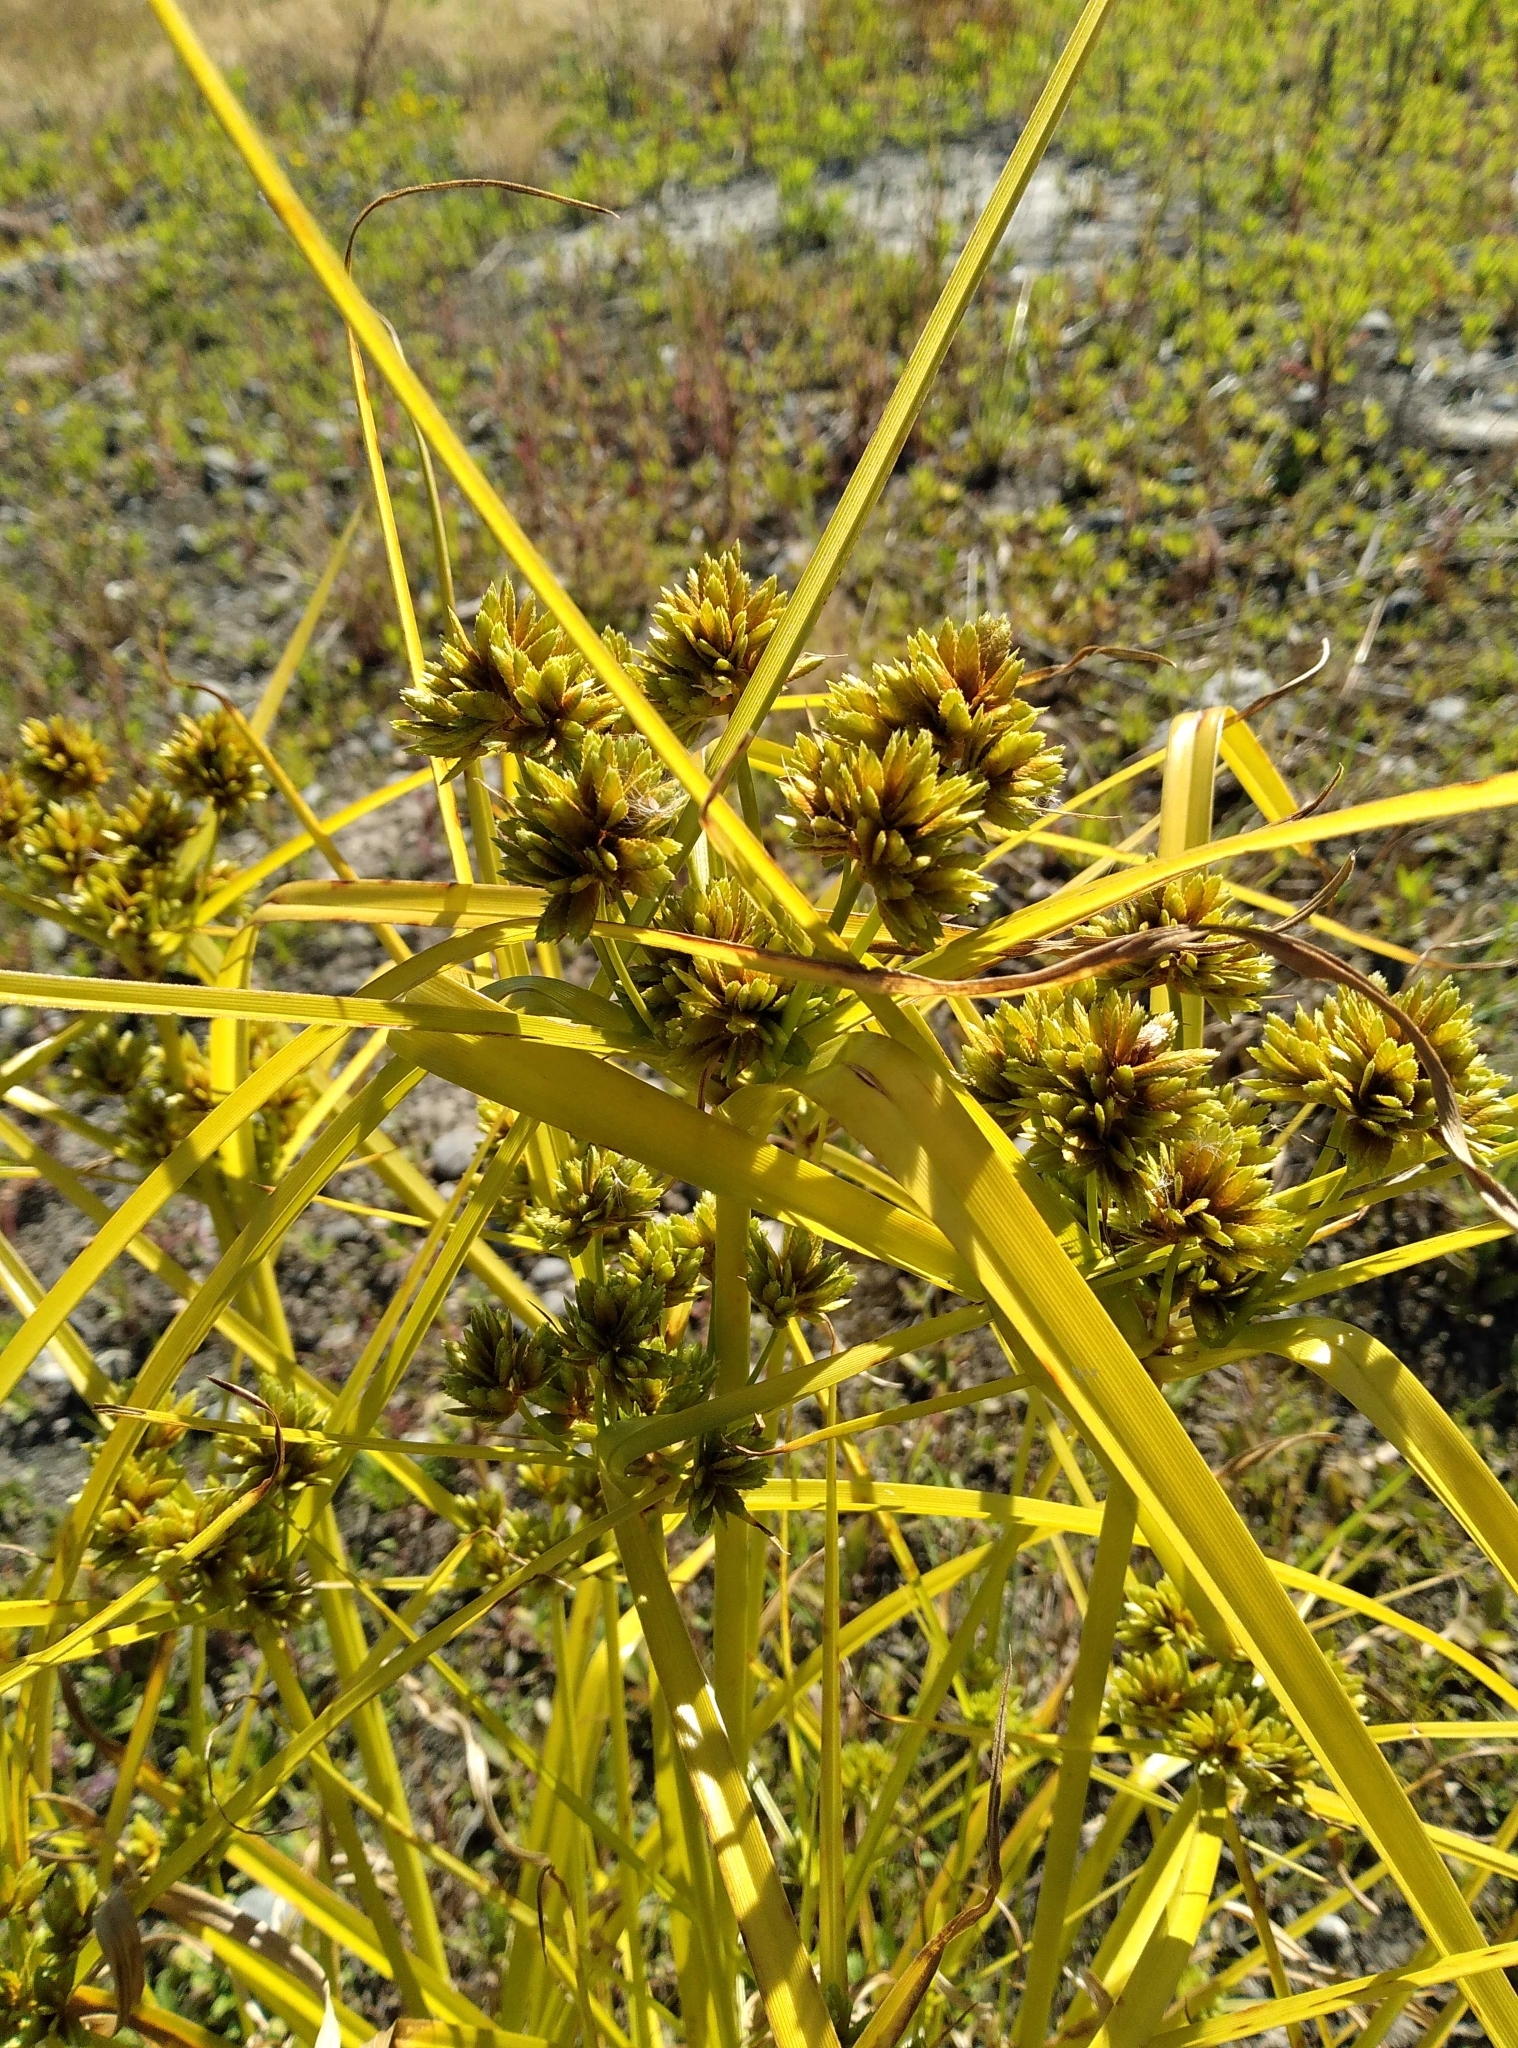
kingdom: Plantae
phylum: Tracheophyta
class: Liliopsida
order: Poales
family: Cyperaceae
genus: Cyperus
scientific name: Cyperus eragrostis
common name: Tall flatsedge
